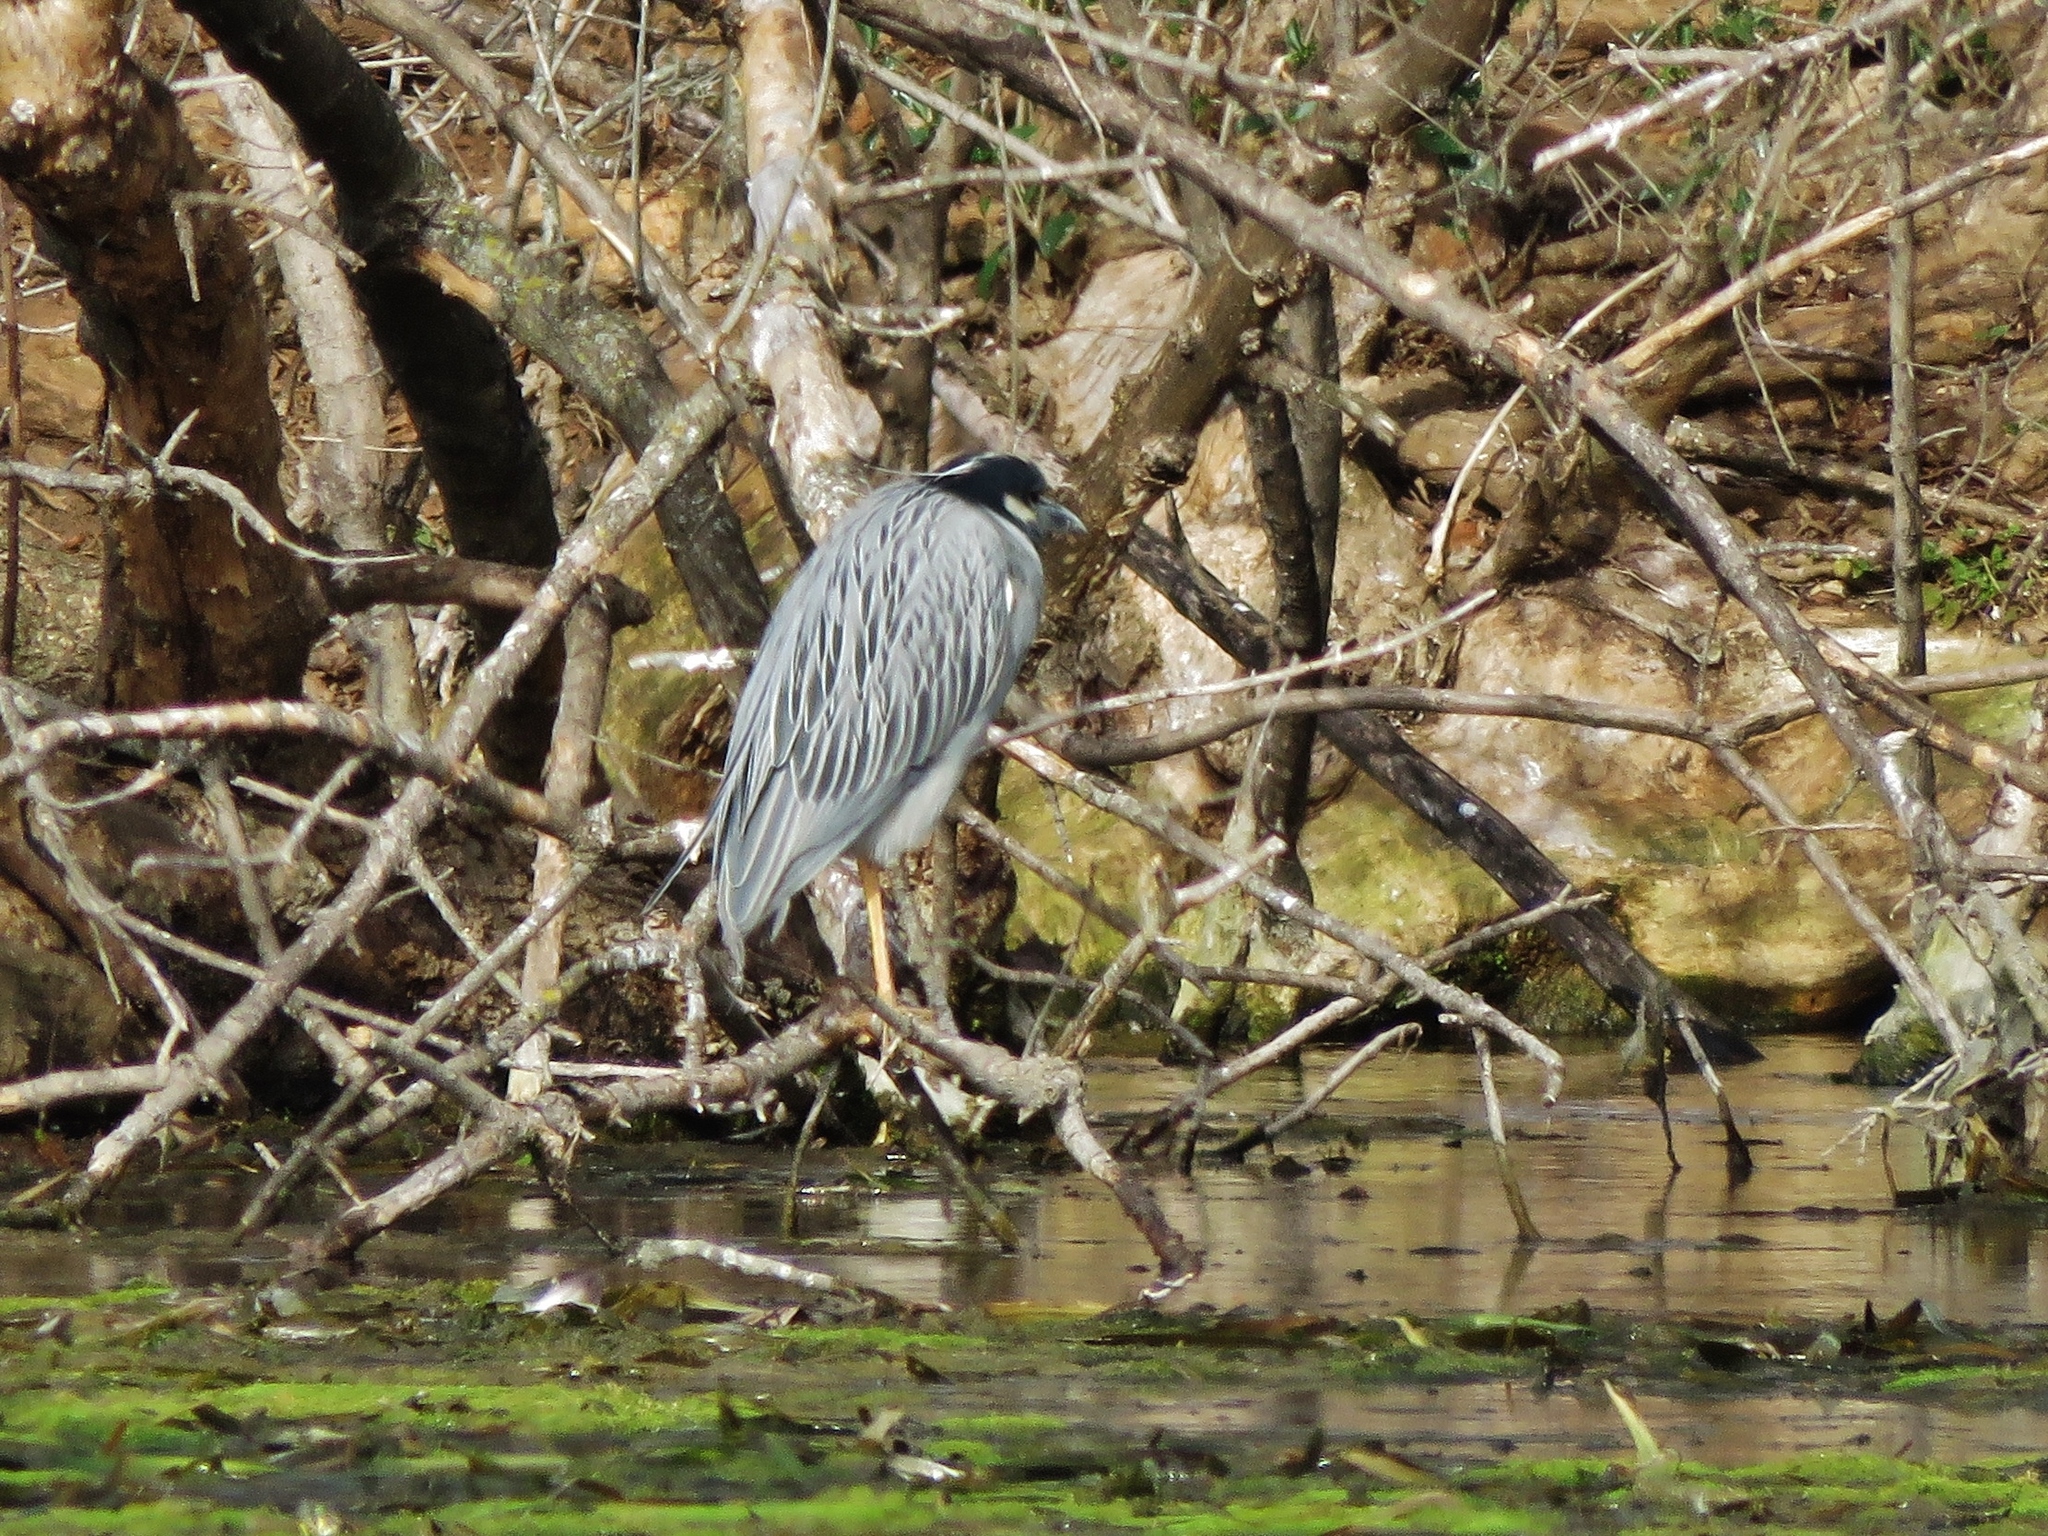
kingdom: Animalia
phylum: Chordata
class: Aves
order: Pelecaniformes
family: Ardeidae
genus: Nyctanassa
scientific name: Nyctanassa violacea
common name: Yellow-crowned night heron
